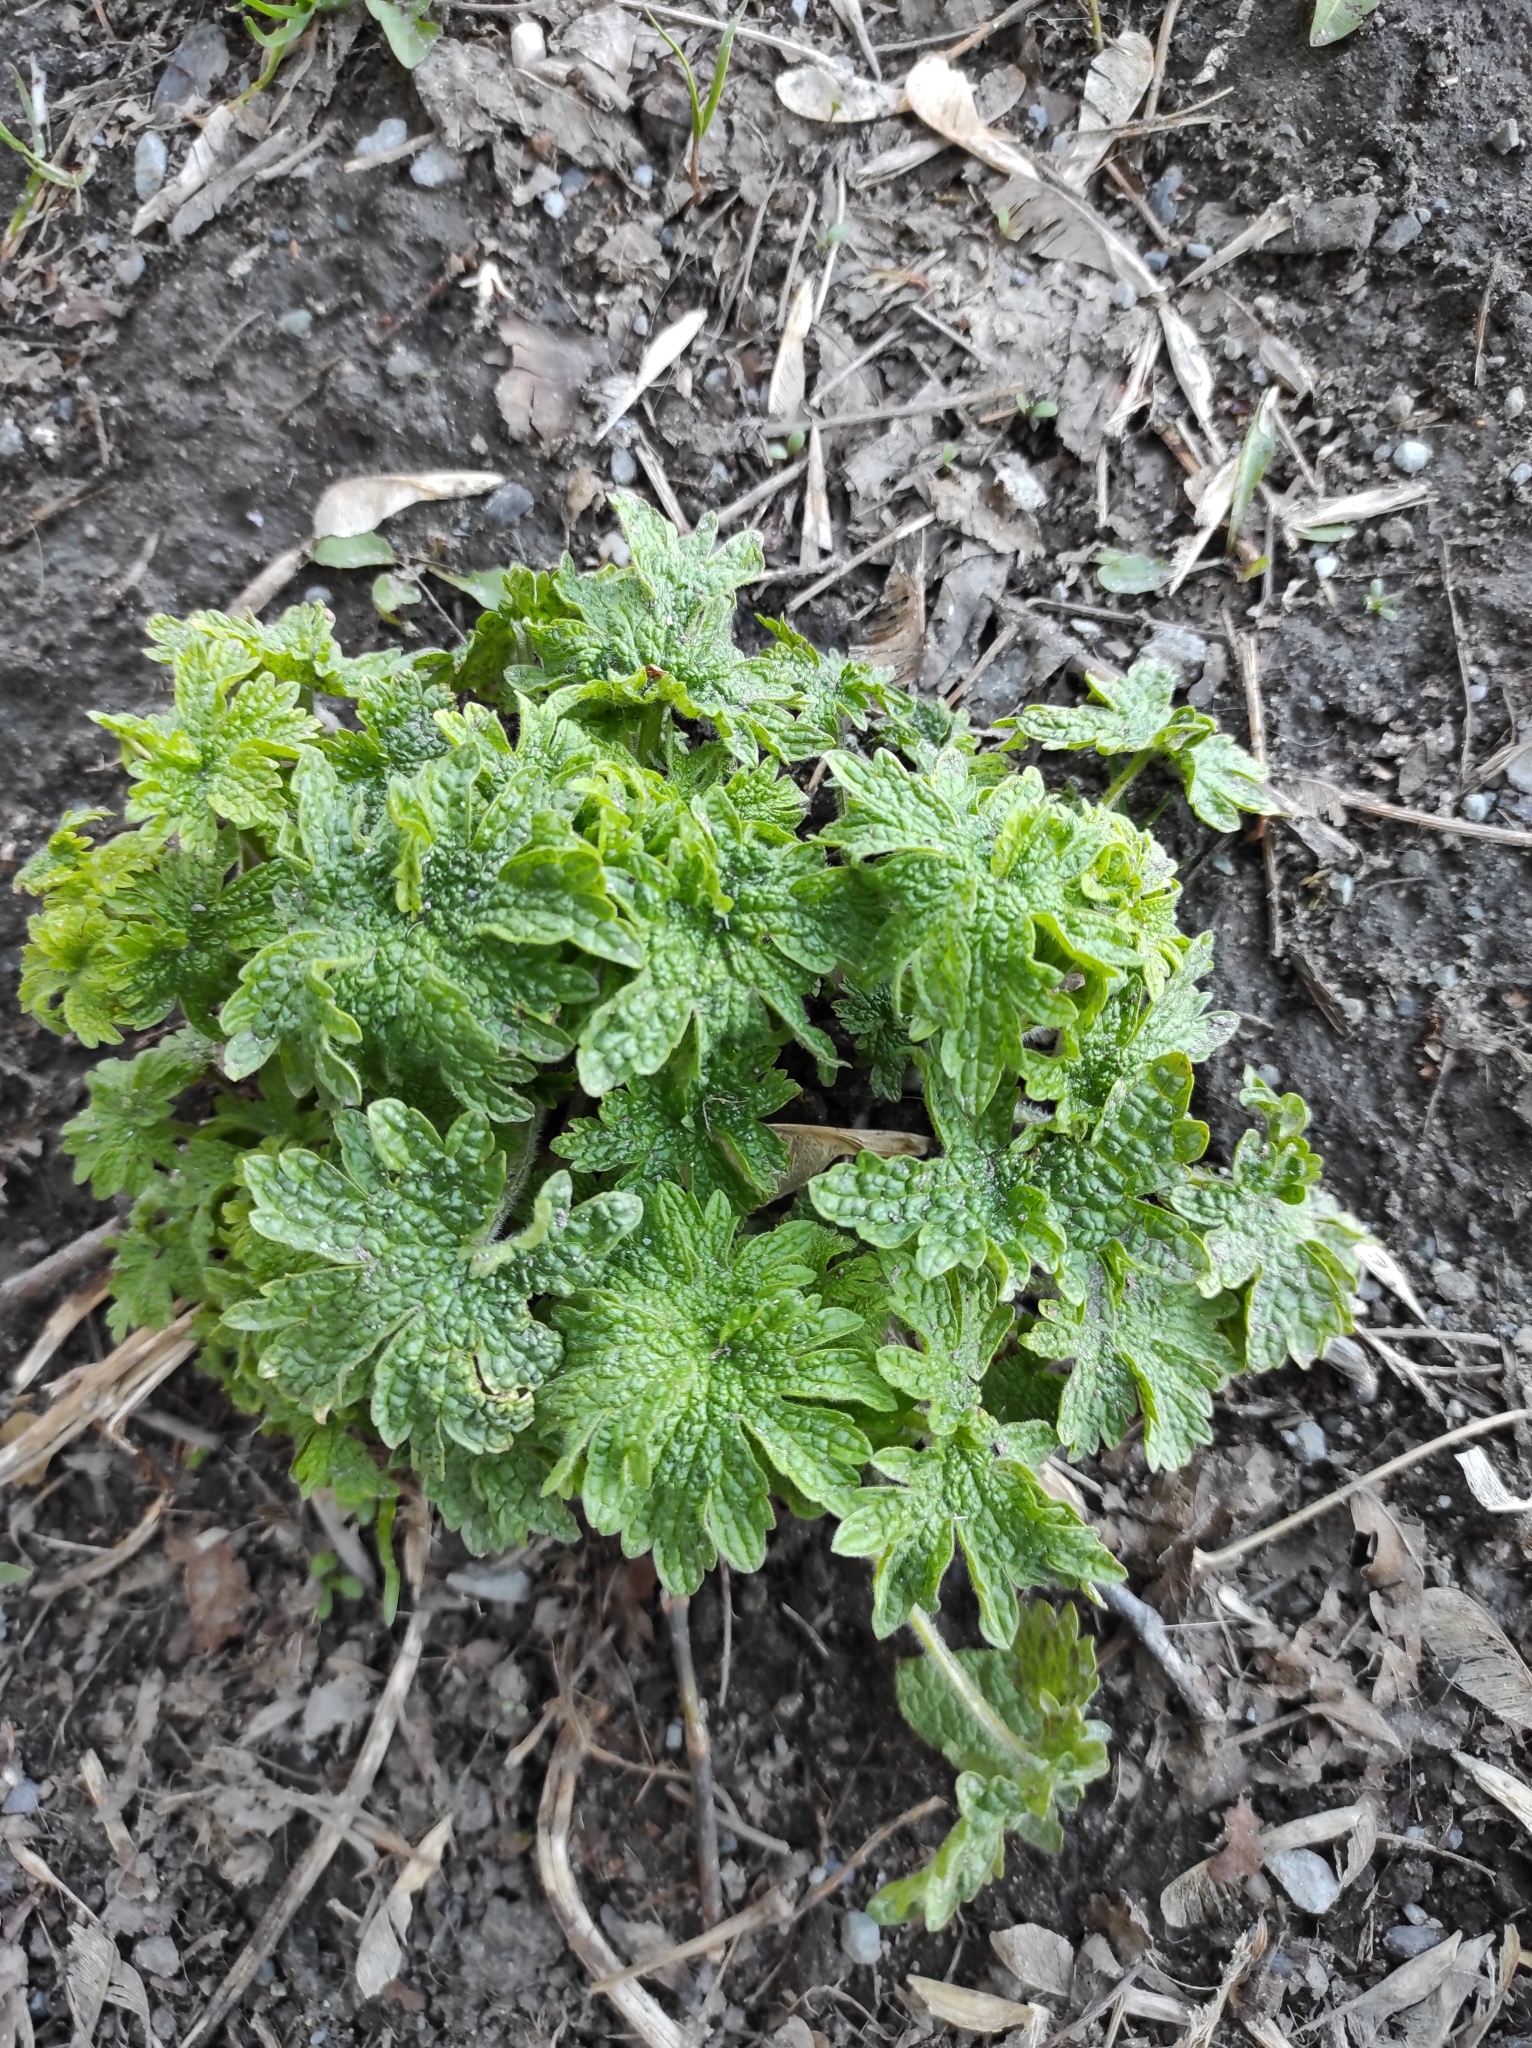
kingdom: Plantae
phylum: Tracheophyta
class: Magnoliopsida
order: Lamiales
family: Lamiaceae
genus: Leonurus
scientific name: Leonurus quinquelobatus
